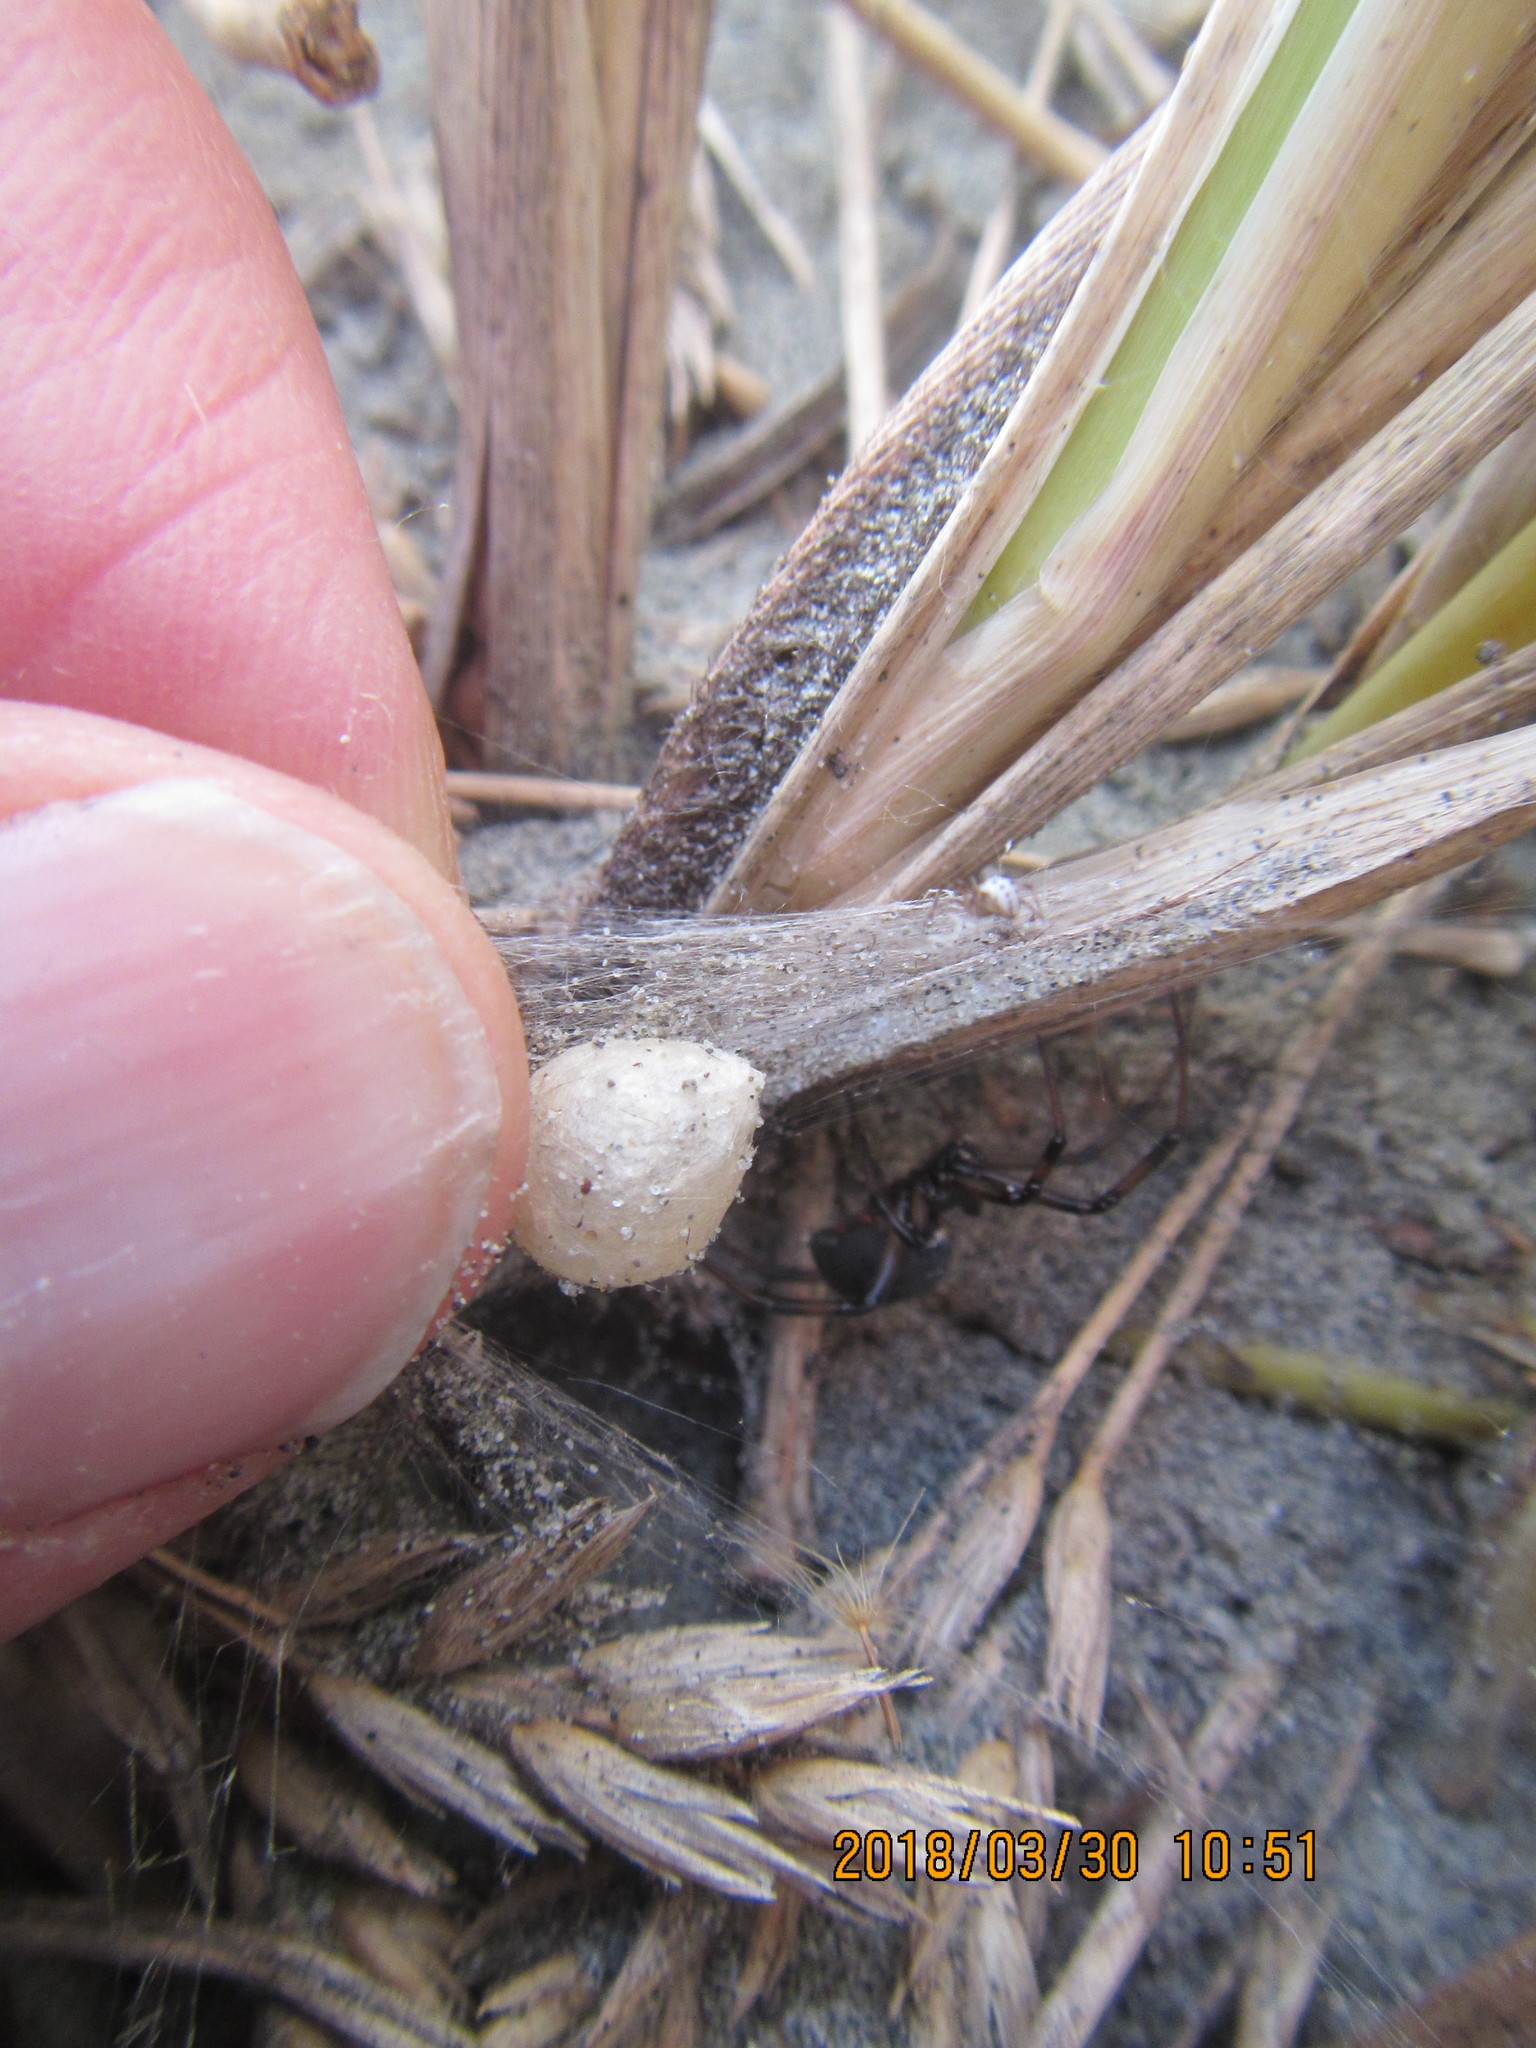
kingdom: Animalia
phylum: Arthropoda
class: Arachnida
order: Araneae
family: Theridiidae
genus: Latrodectus
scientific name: Latrodectus katipo
